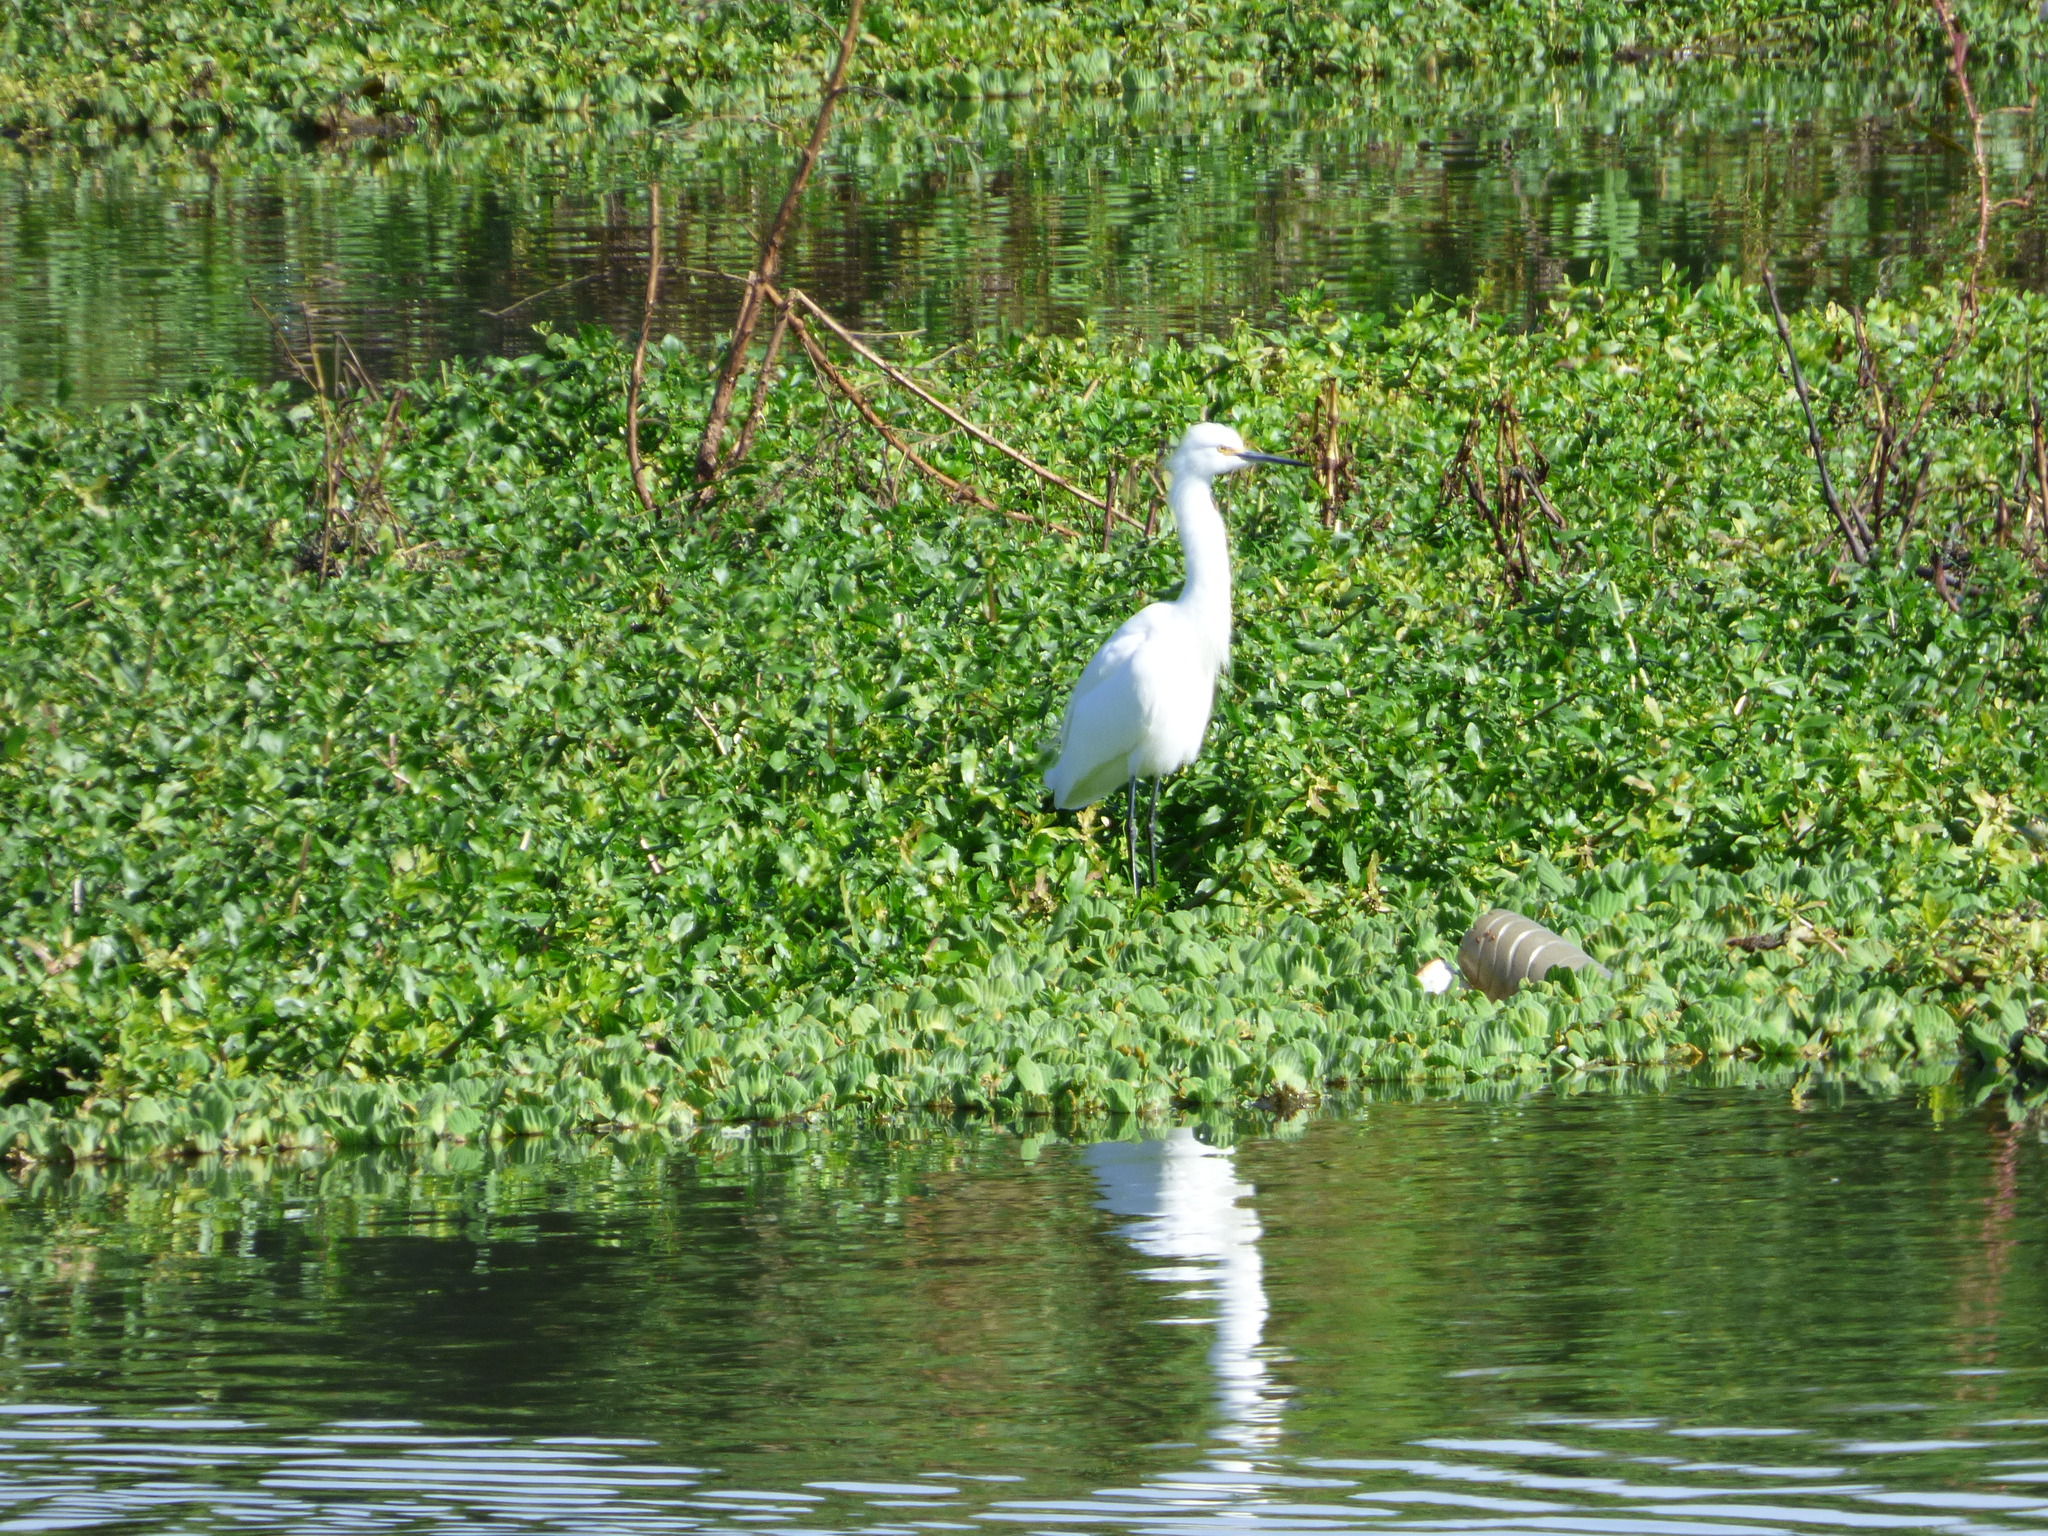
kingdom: Animalia
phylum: Chordata
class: Aves
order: Pelecaniformes
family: Ardeidae
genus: Egretta
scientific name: Egretta thula
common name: Snowy egret
